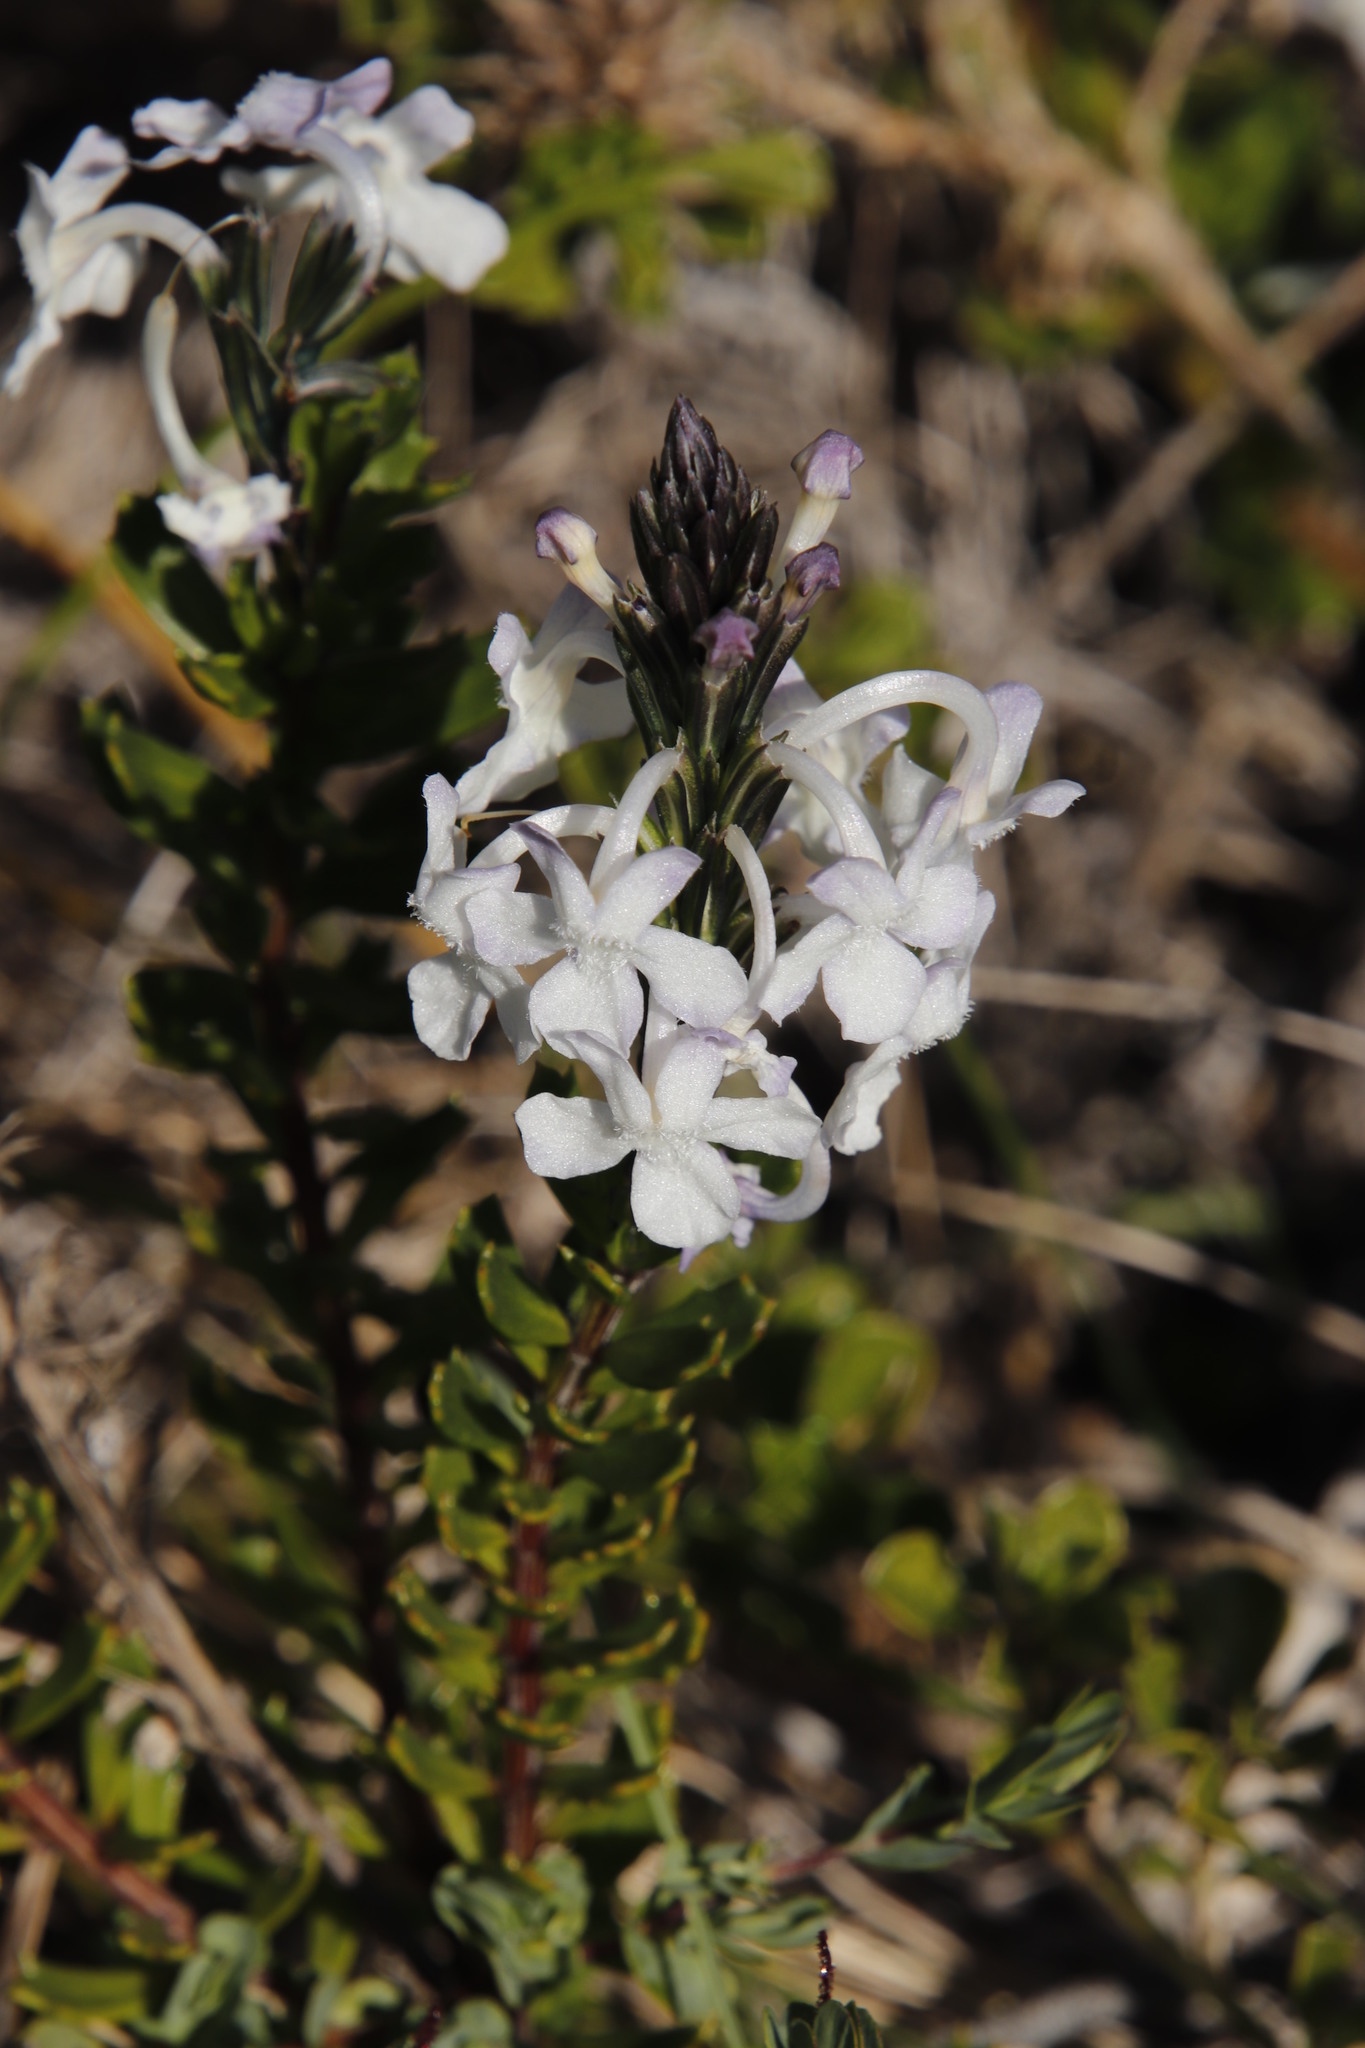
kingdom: Plantae
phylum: Tracheophyta
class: Magnoliopsida
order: Lamiales
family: Verbenaceae
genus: Chascanum
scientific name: Chascanum cernuum
